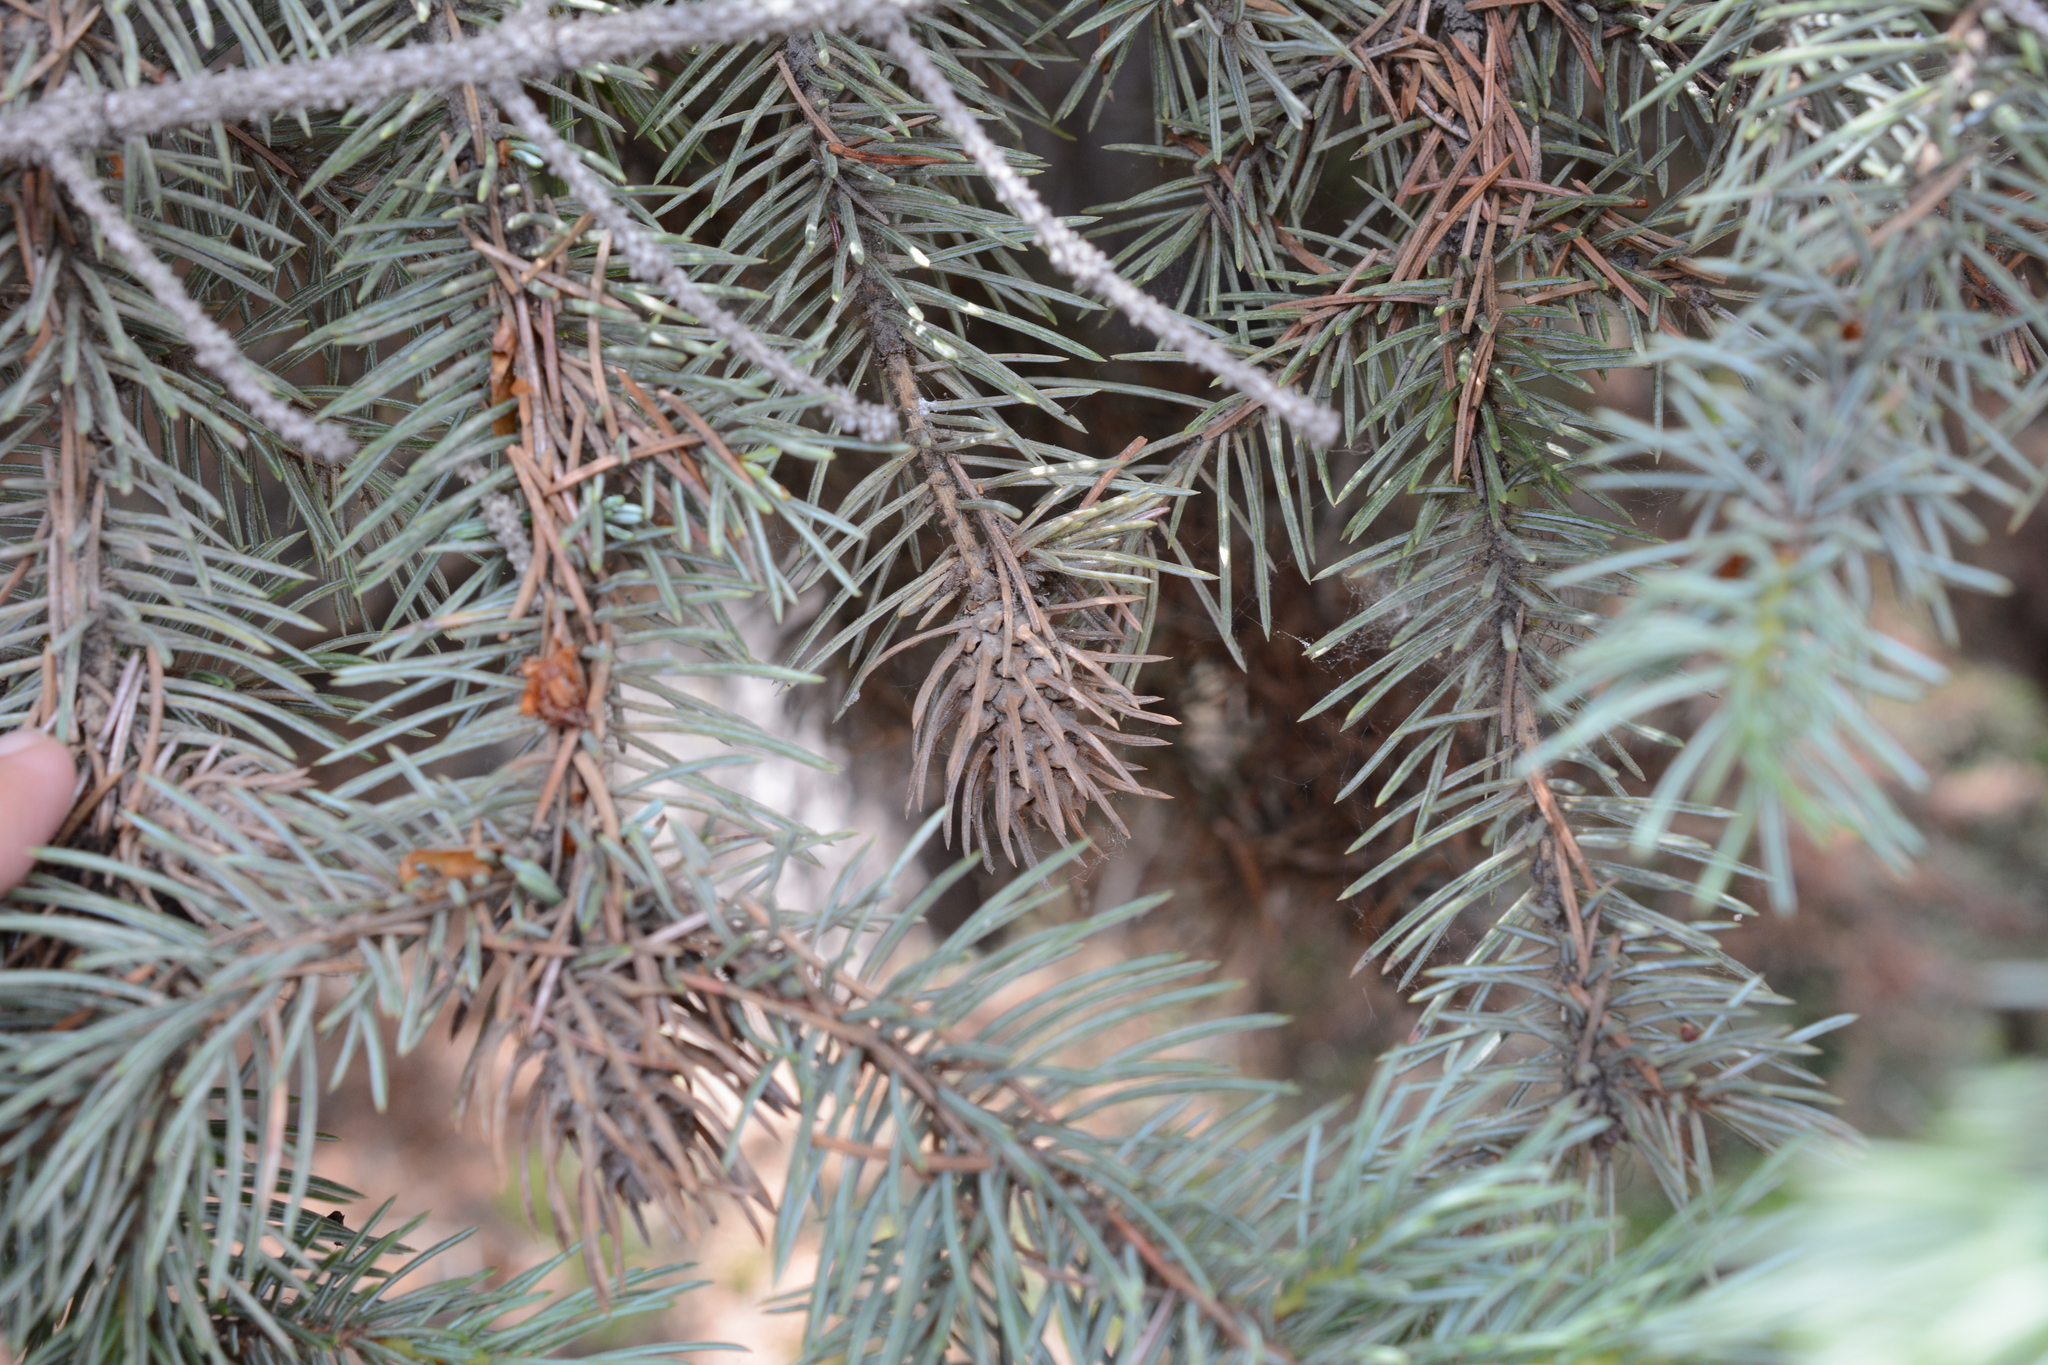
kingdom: Animalia
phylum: Arthropoda
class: Insecta
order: Hemiptera
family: Adelgidae
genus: Adelges
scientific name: Adelges cooleyi
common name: Cooley spruce gall adelgid
